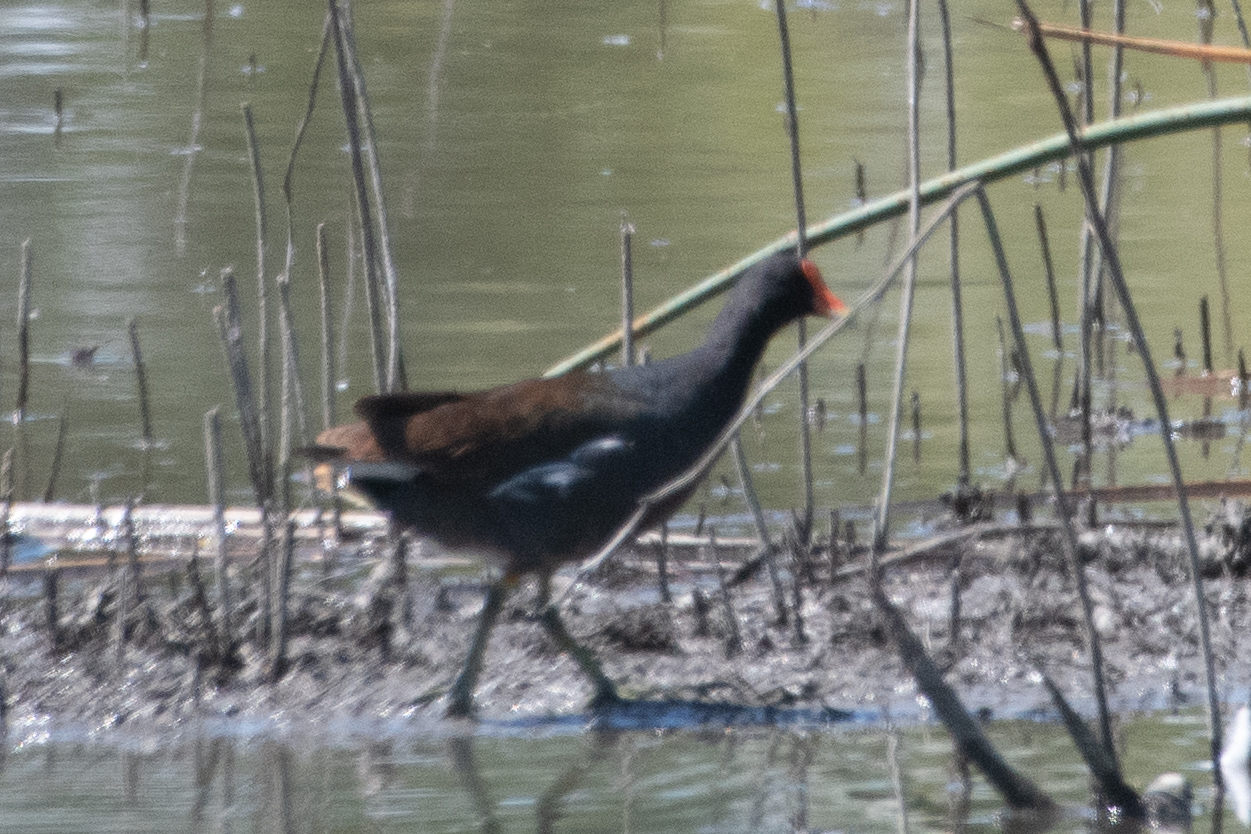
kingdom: Animalia
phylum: Chordata
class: Aves
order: Gruiformes
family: Rallidae
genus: Gallinula
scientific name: Gallinula chloropus
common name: Common moorhen
